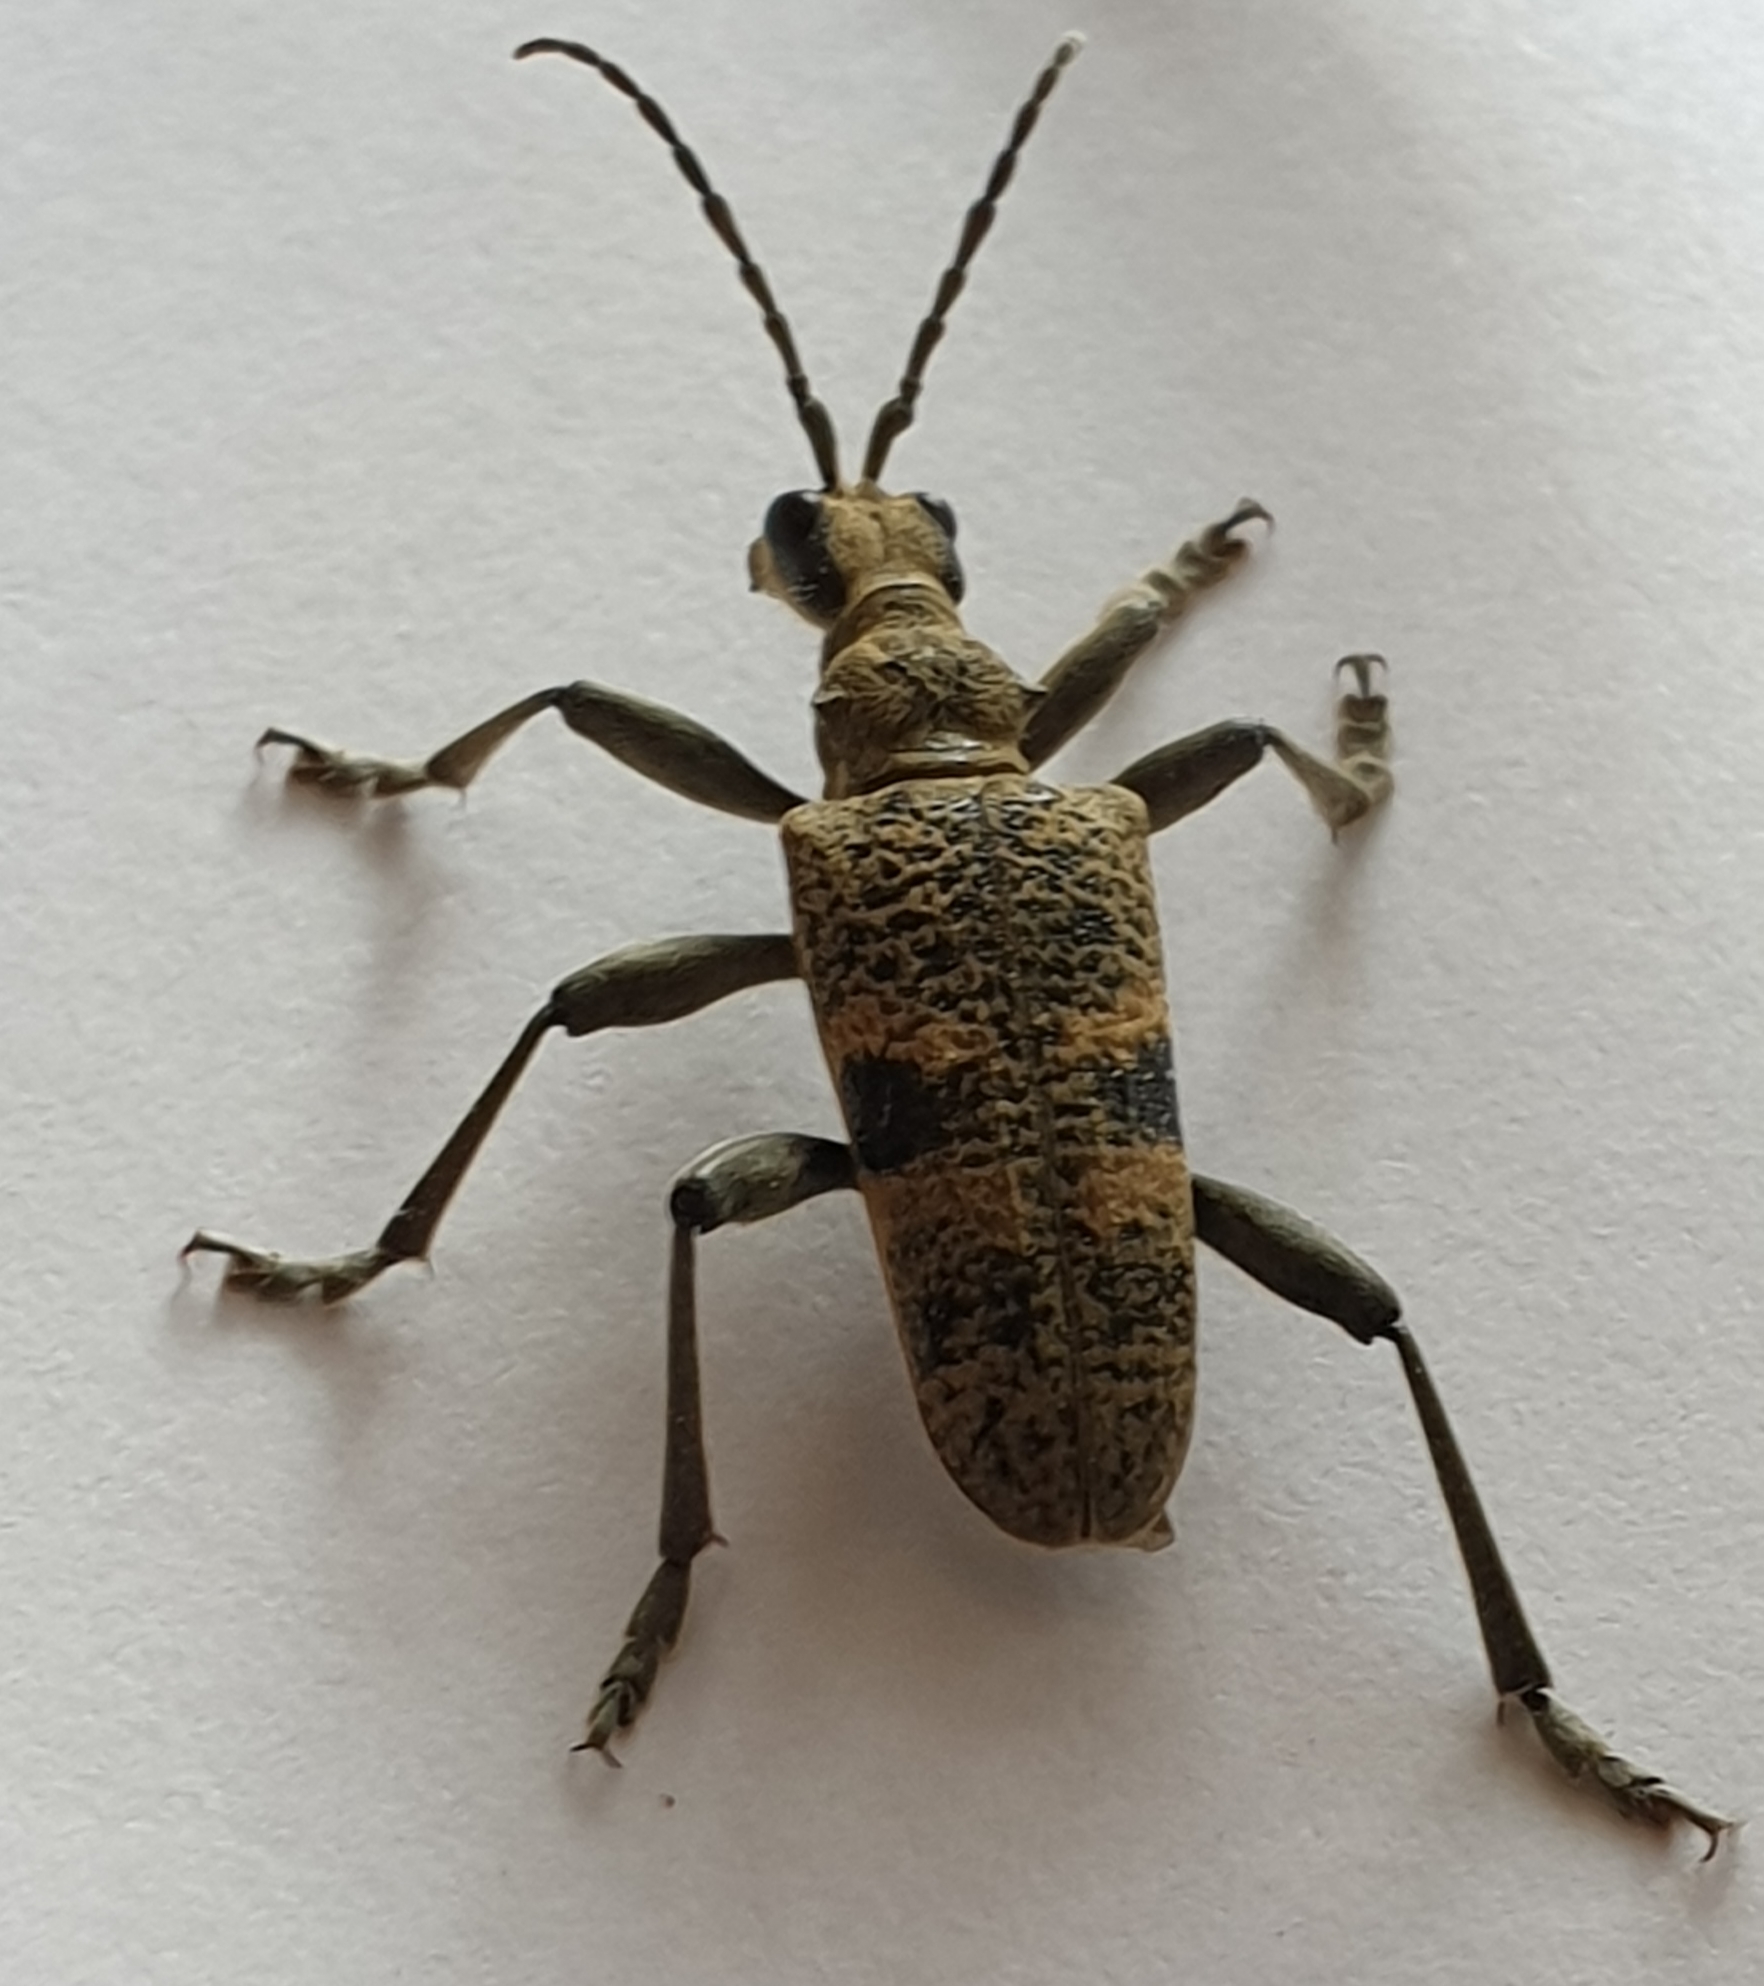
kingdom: Animalia
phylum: Arthropoda
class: Insecta
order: Coleoptera
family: Cerambycidae
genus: Rhagium
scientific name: Rhagium mordax
